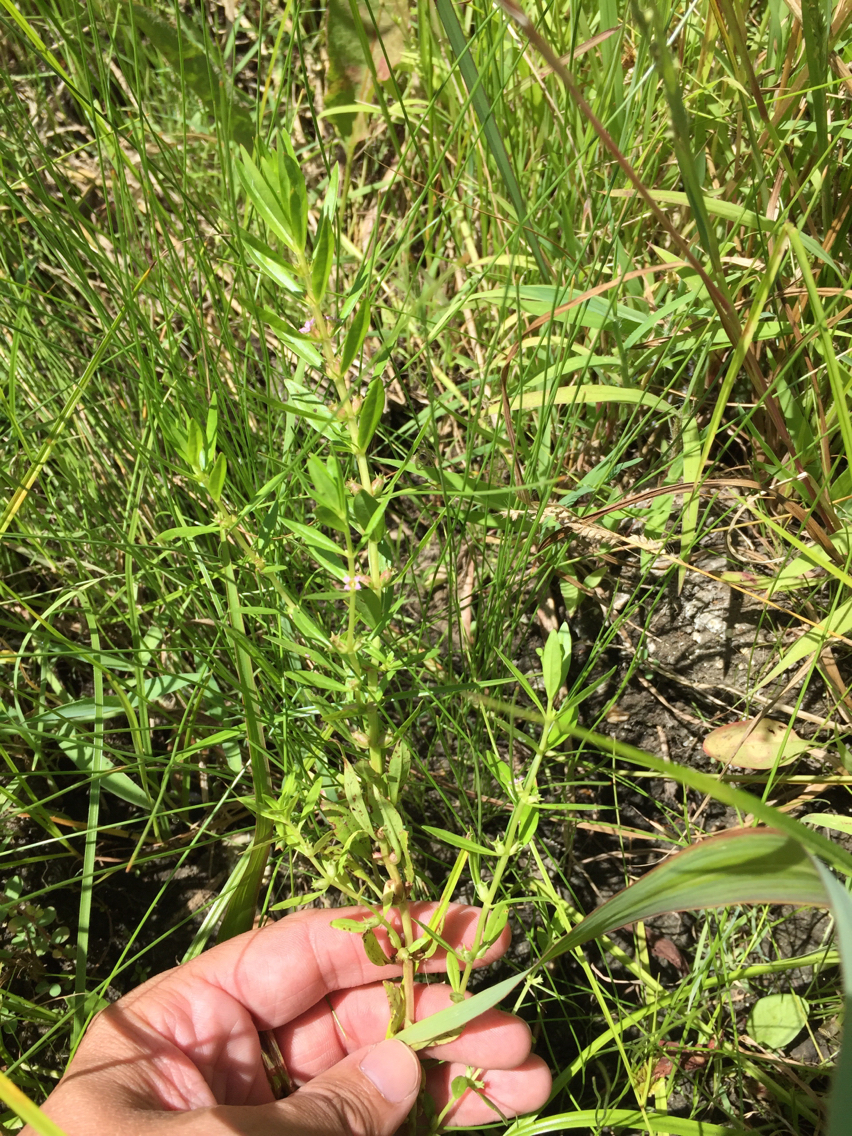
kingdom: Plantae
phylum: Tracheophyta
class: Magnoliopsida
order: Myrtales
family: Lythraceae
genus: Rotala
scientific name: Rotala ramosior
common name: Lowland rotala
